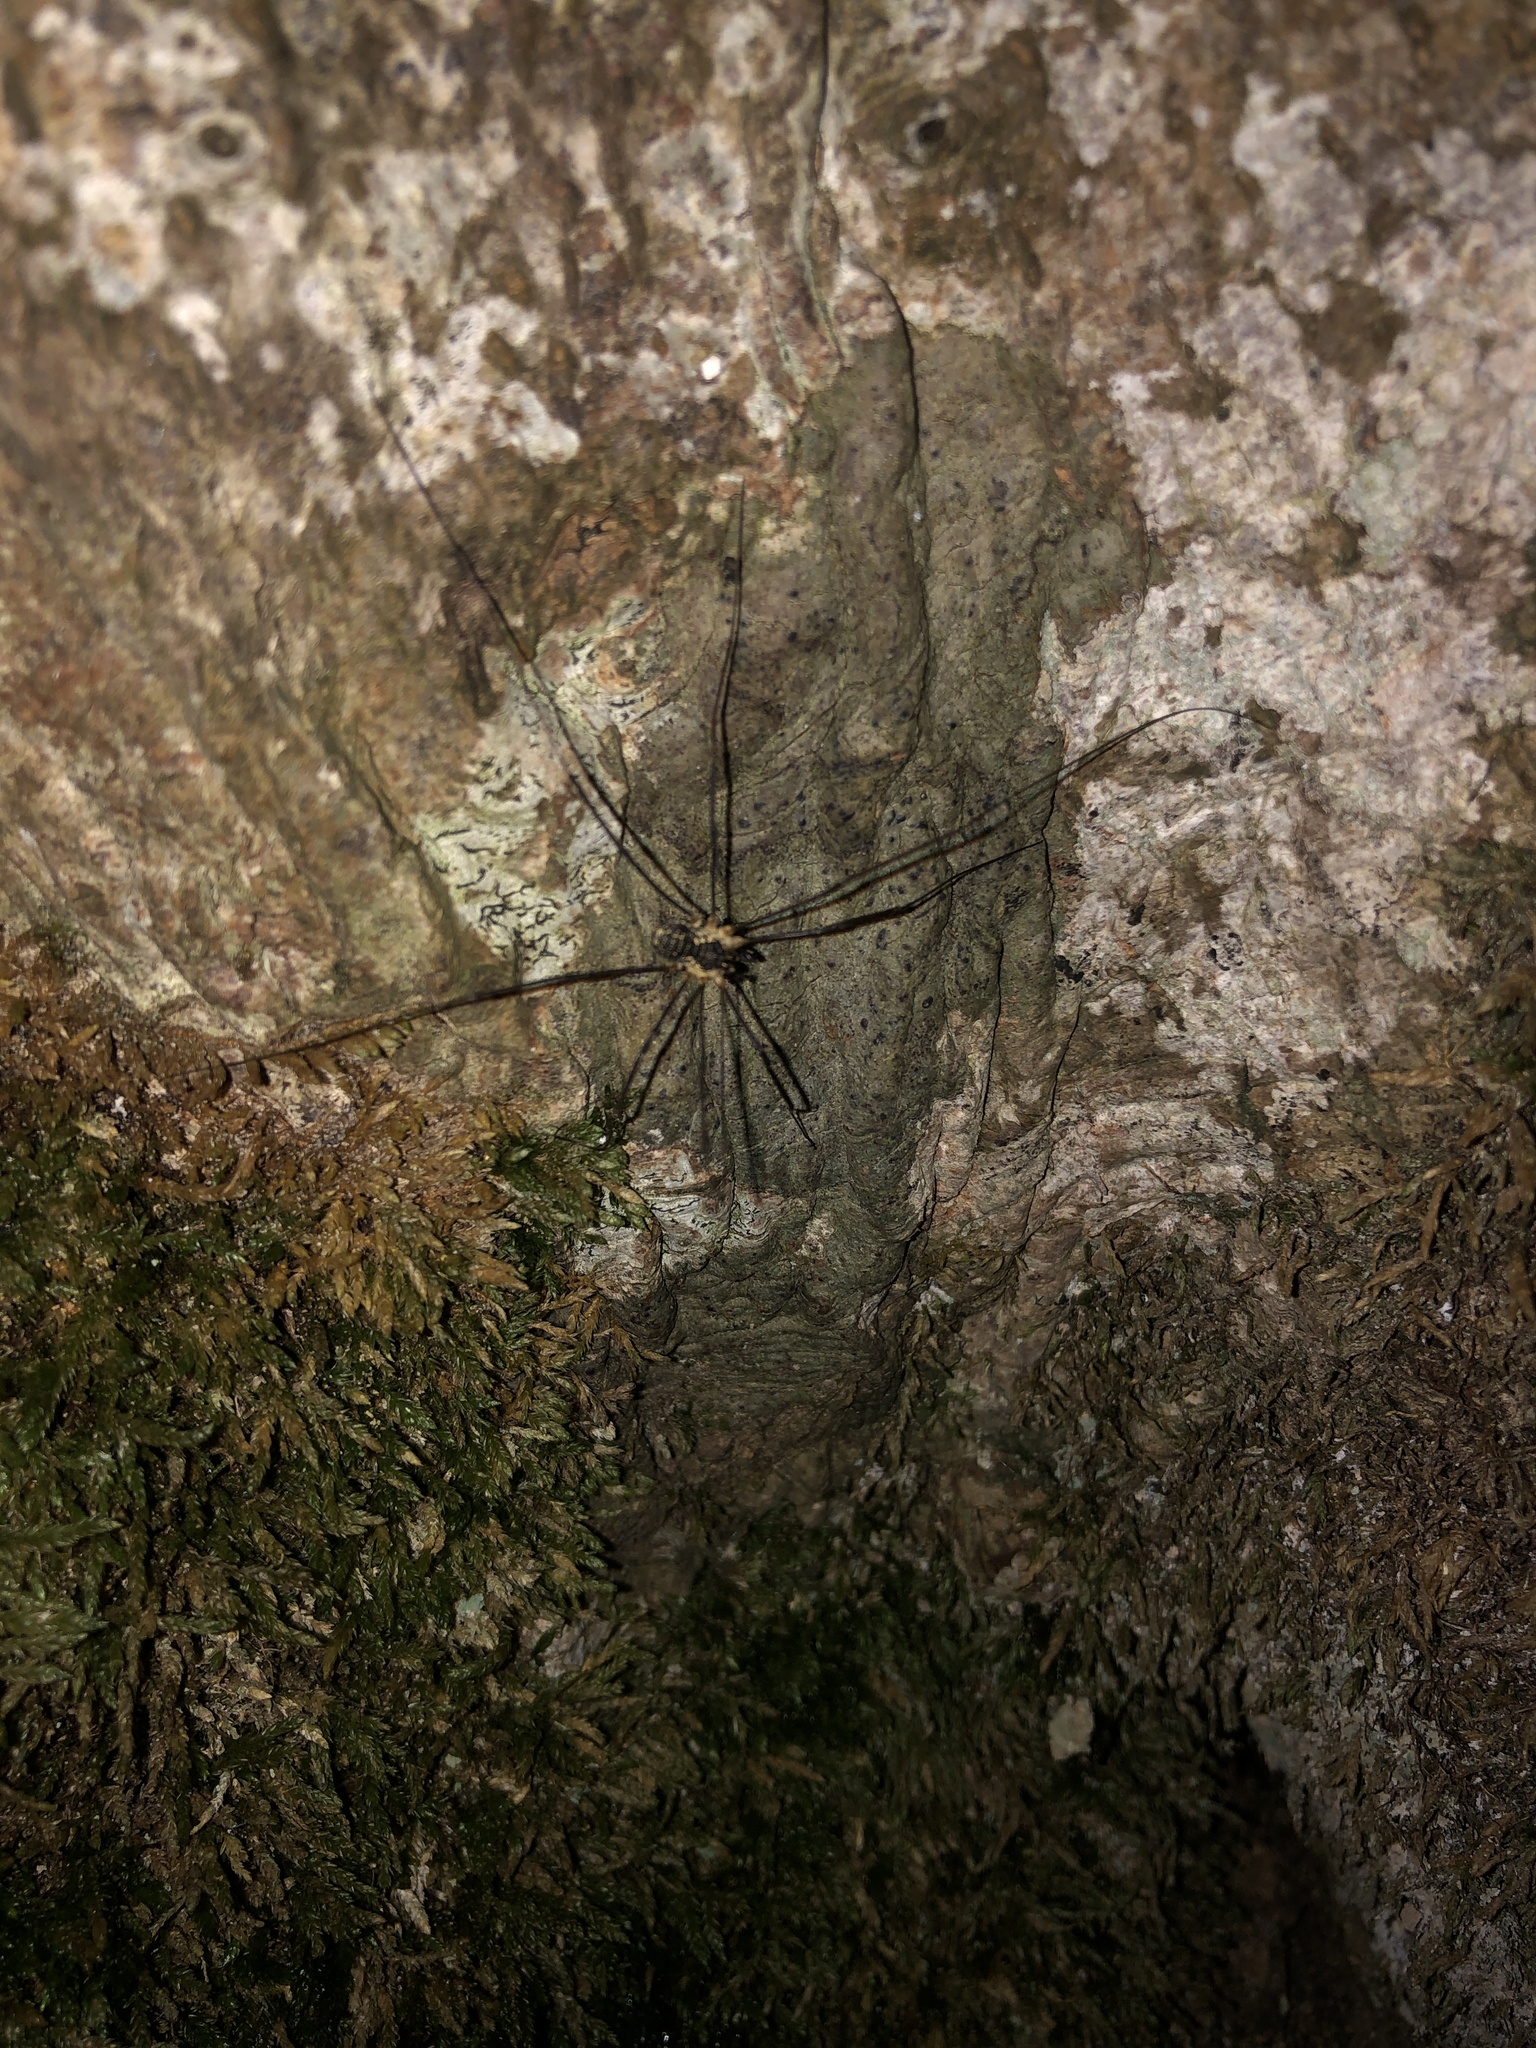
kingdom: Animalia
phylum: Arthropoda
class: Arachnida
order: Opiliones
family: Phalangiidae
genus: Mitopus
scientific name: Mitopus morio
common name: Saddleback harvestman
